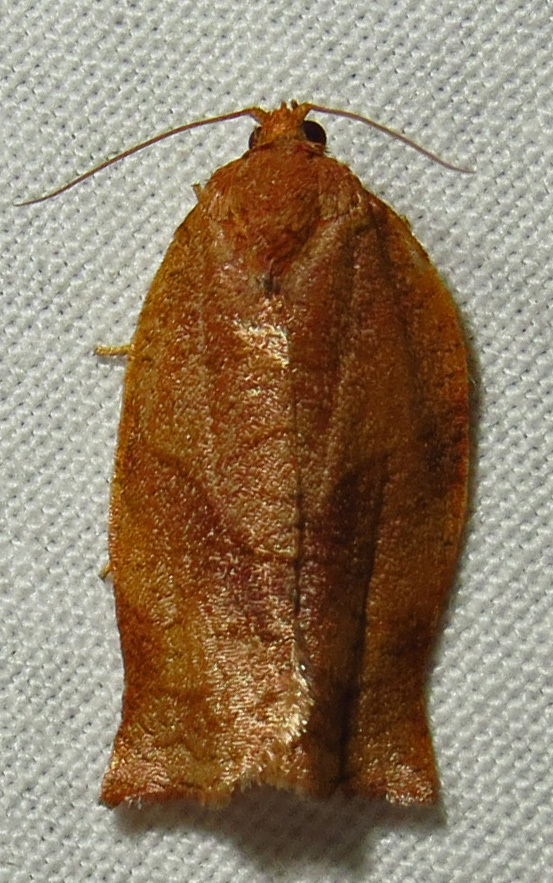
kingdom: Animalia
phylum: Arthropoda
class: Insecta
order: Lepidoptera
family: Tortricidae
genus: Choristoneura
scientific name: Choristoneura rosaceana
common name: Oblique-banded leafroller moth
